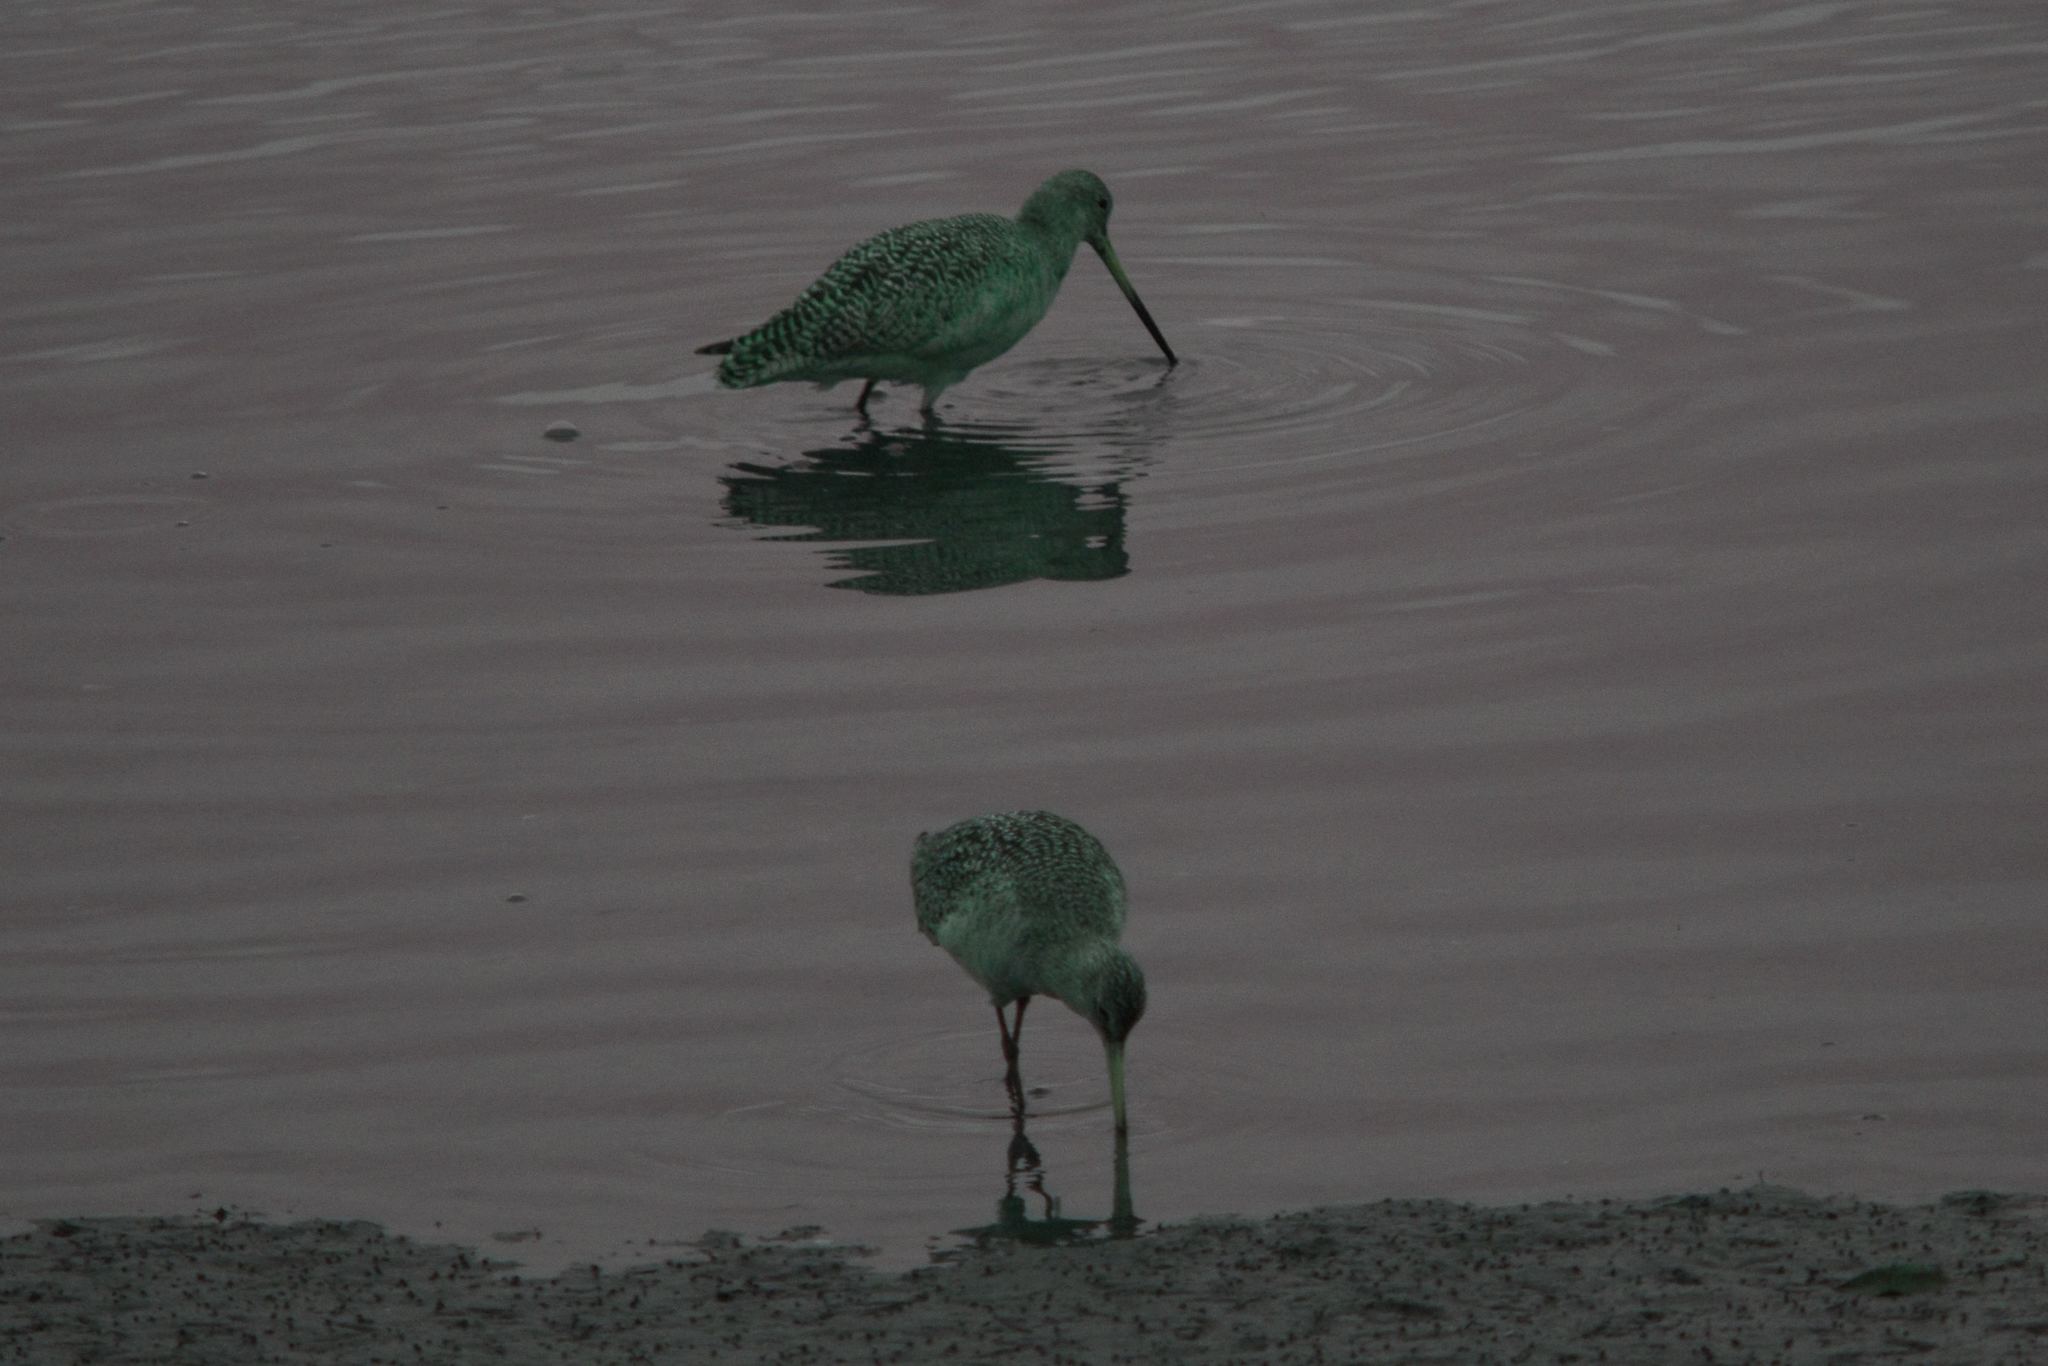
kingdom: Animalia
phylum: Chordata
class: Aves
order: Charadriiformes
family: Scolopacidae
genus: Limosa
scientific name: Limosa fedoa
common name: Marbled godwit
